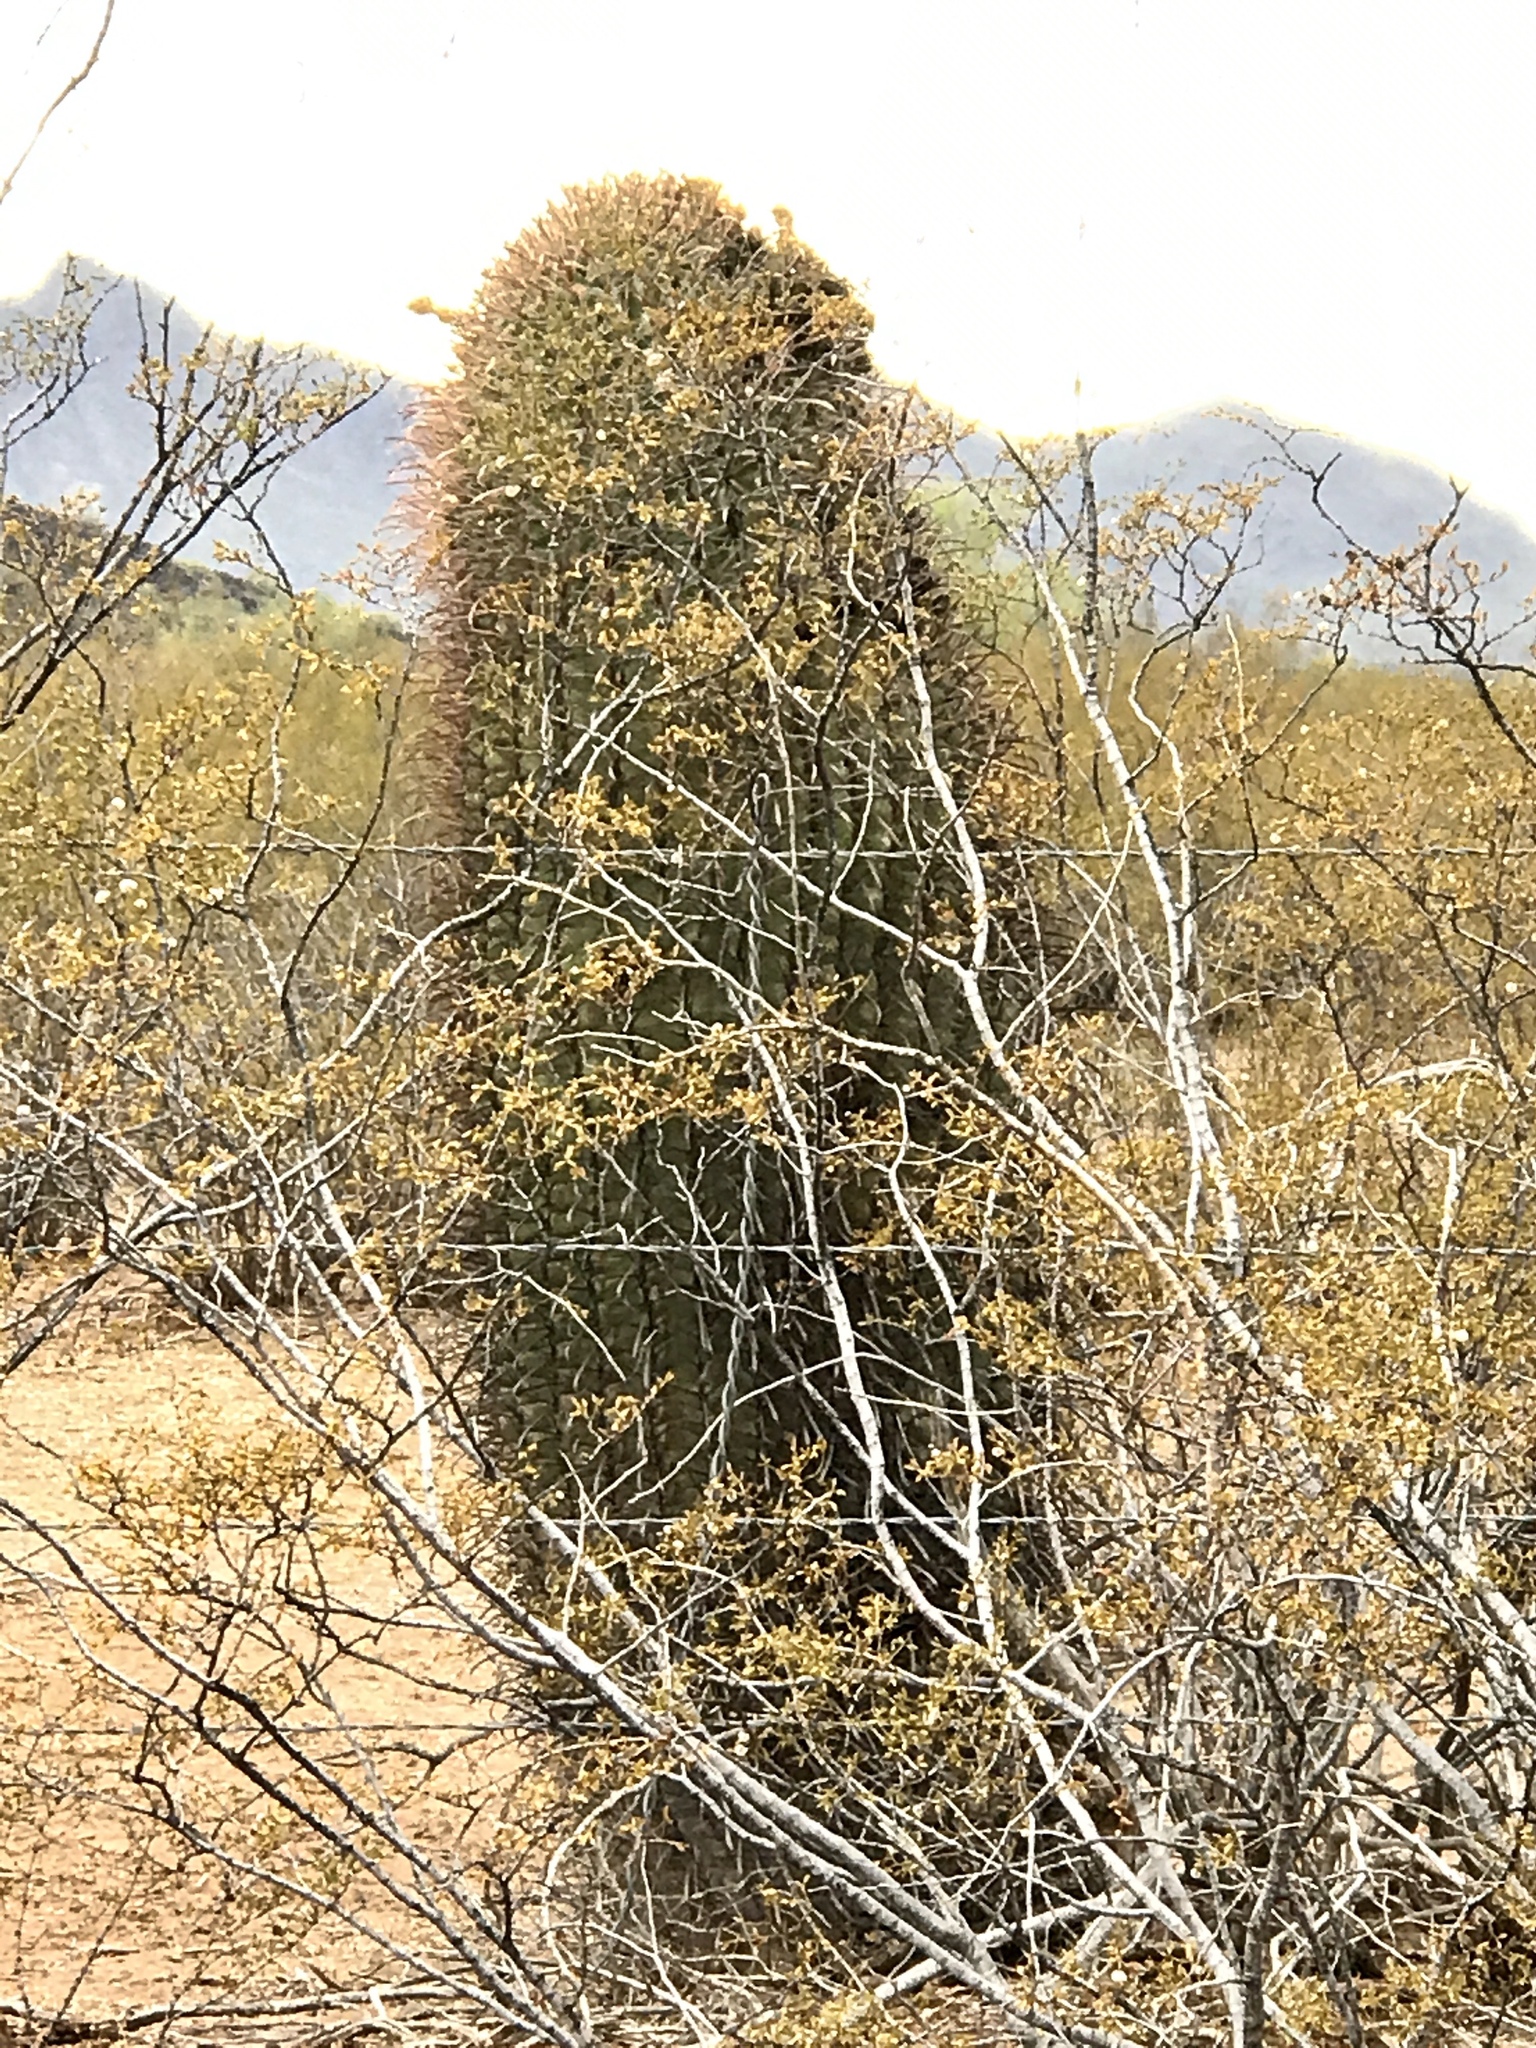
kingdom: Plantae
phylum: Tracheophyta
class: Magnoliopsida
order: Caryophyllales
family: Cactaceae
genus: Ferocactus
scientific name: Ferocactus wislizeni
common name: Candy barrel cactus
